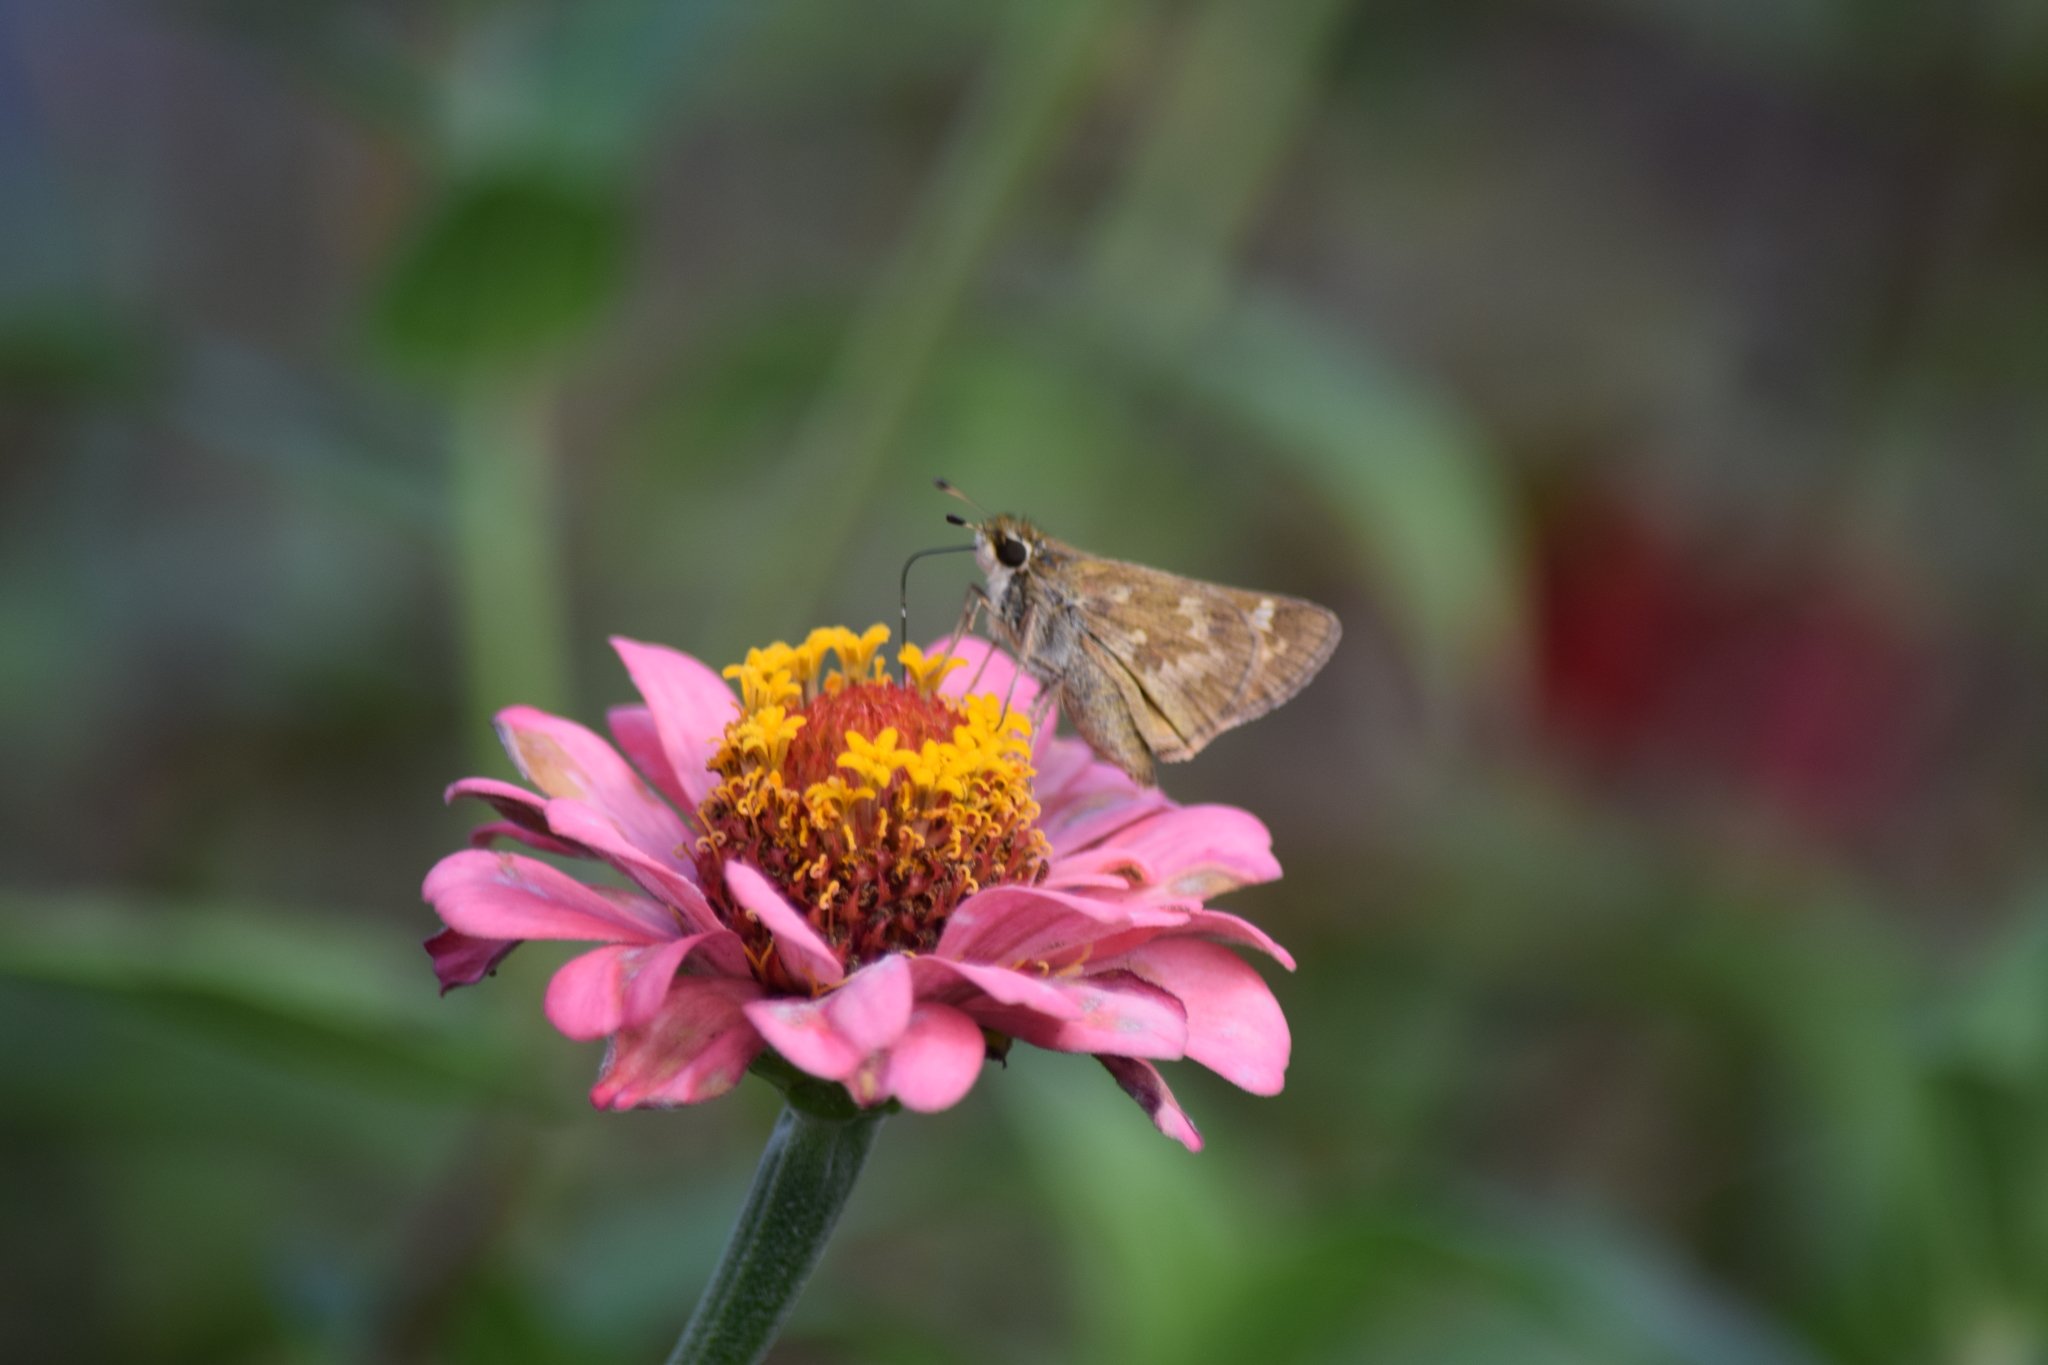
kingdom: Animalia
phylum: Arthropoda
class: Insecta
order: Lepidoptera
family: Hesperiidae
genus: Atalopedes
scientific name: Atalopedes
